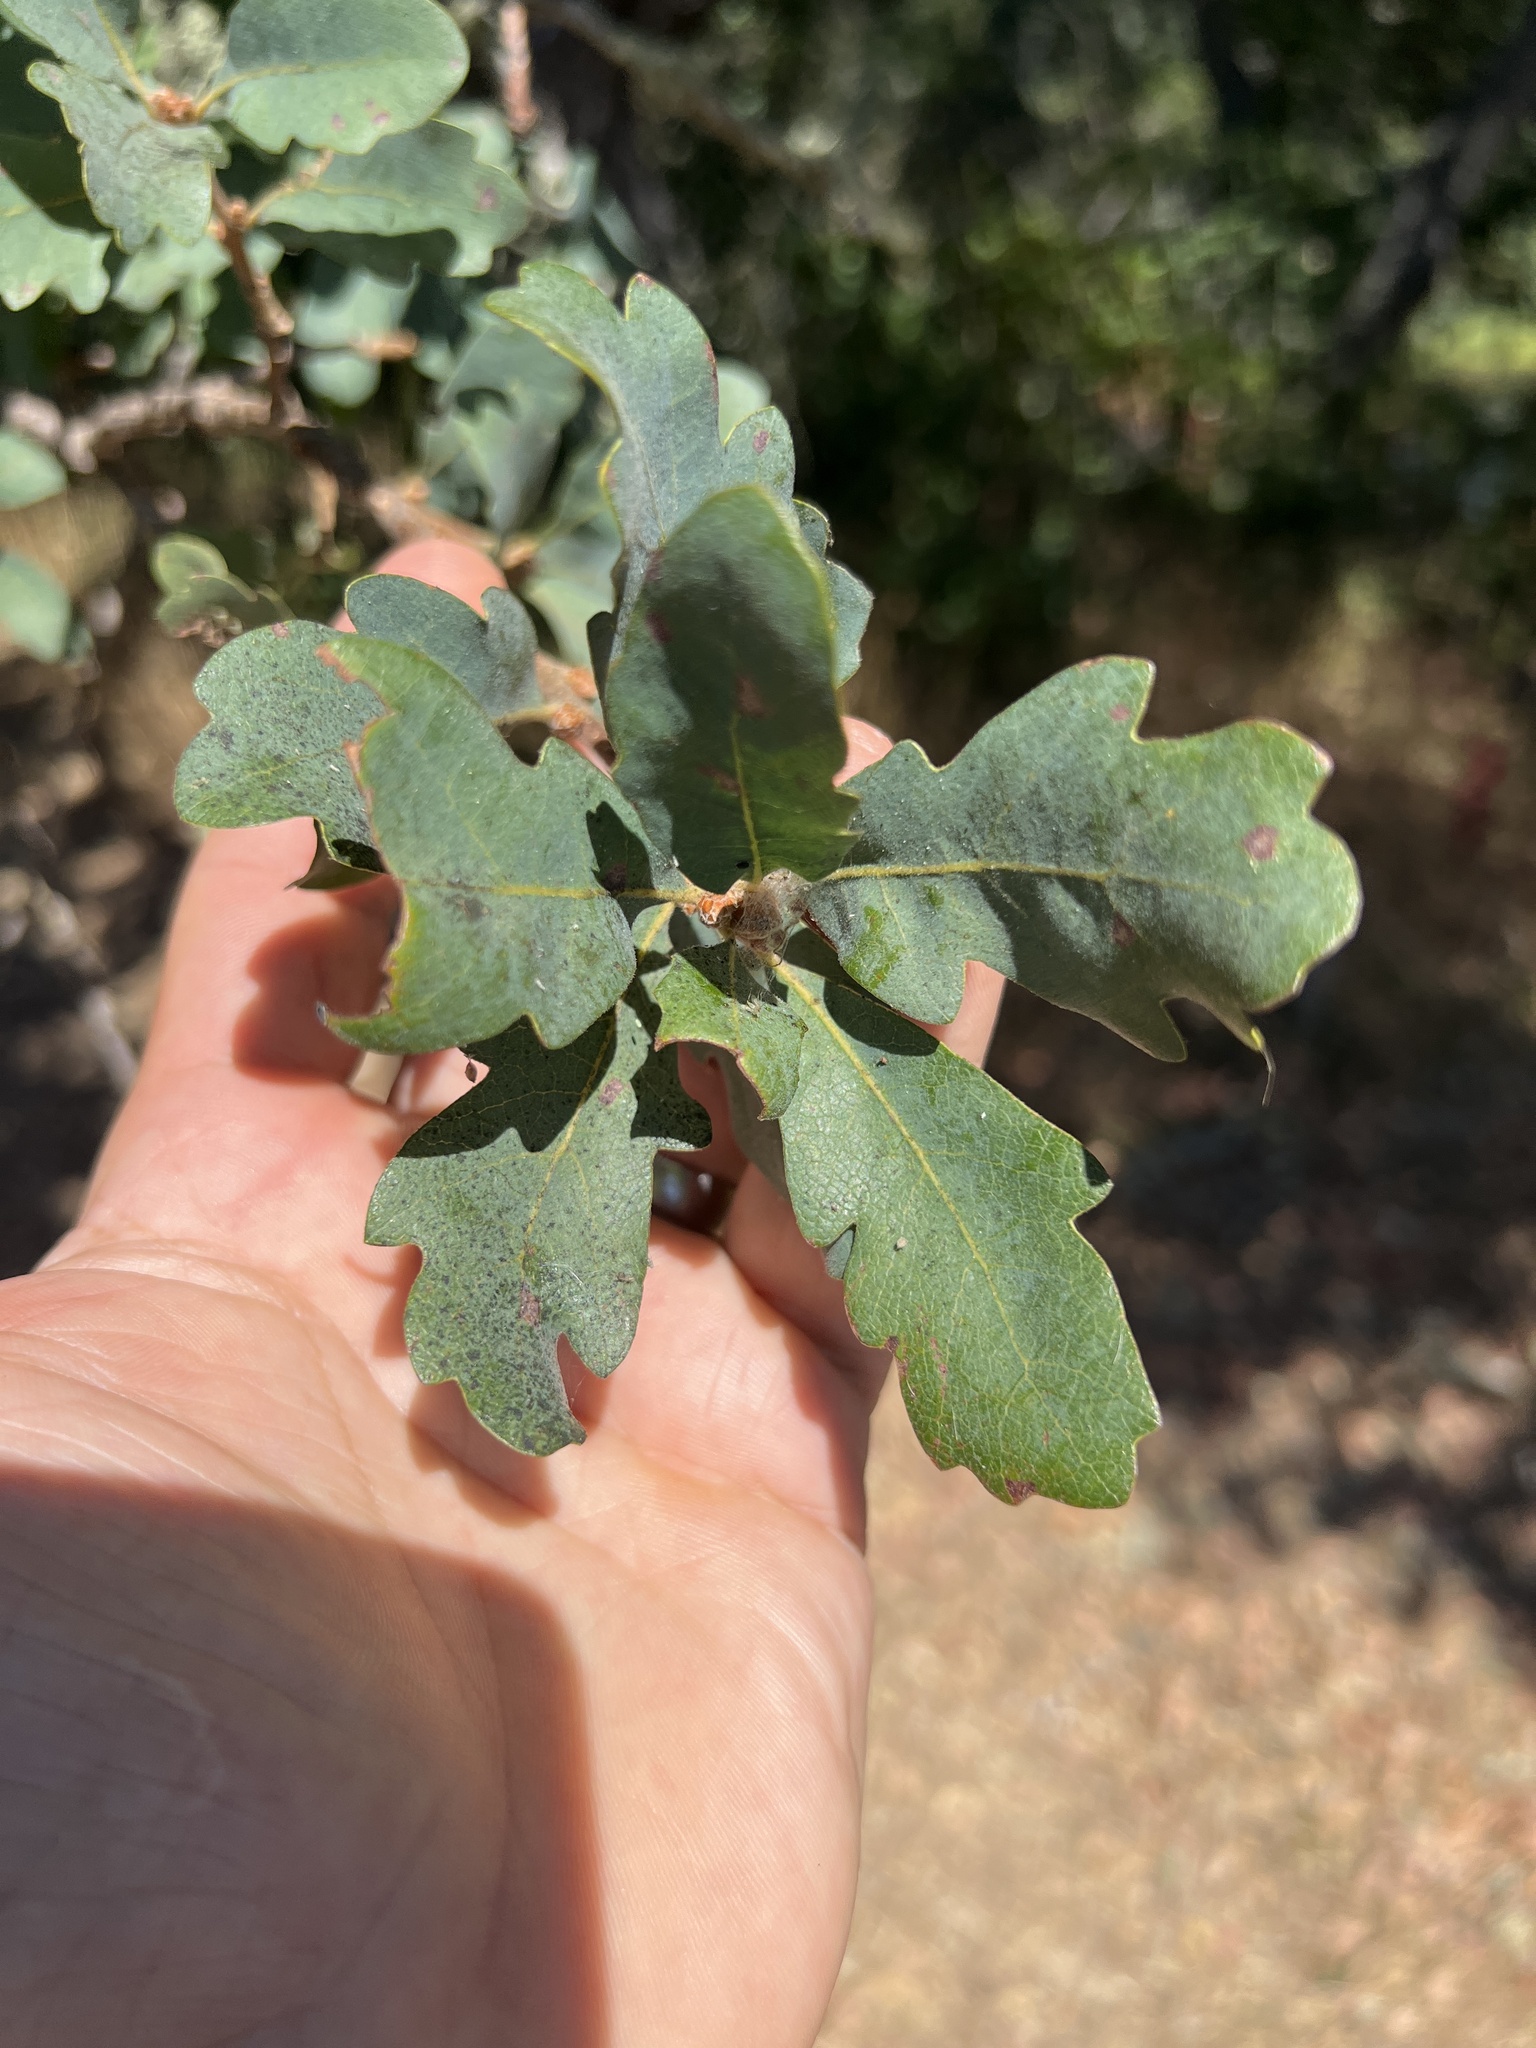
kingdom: Plantae
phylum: Tracheophyta
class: Magnoliopsida
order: Fagales
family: Fagaceae
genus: Quercus
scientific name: Quercus douglasii
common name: Blue oak
